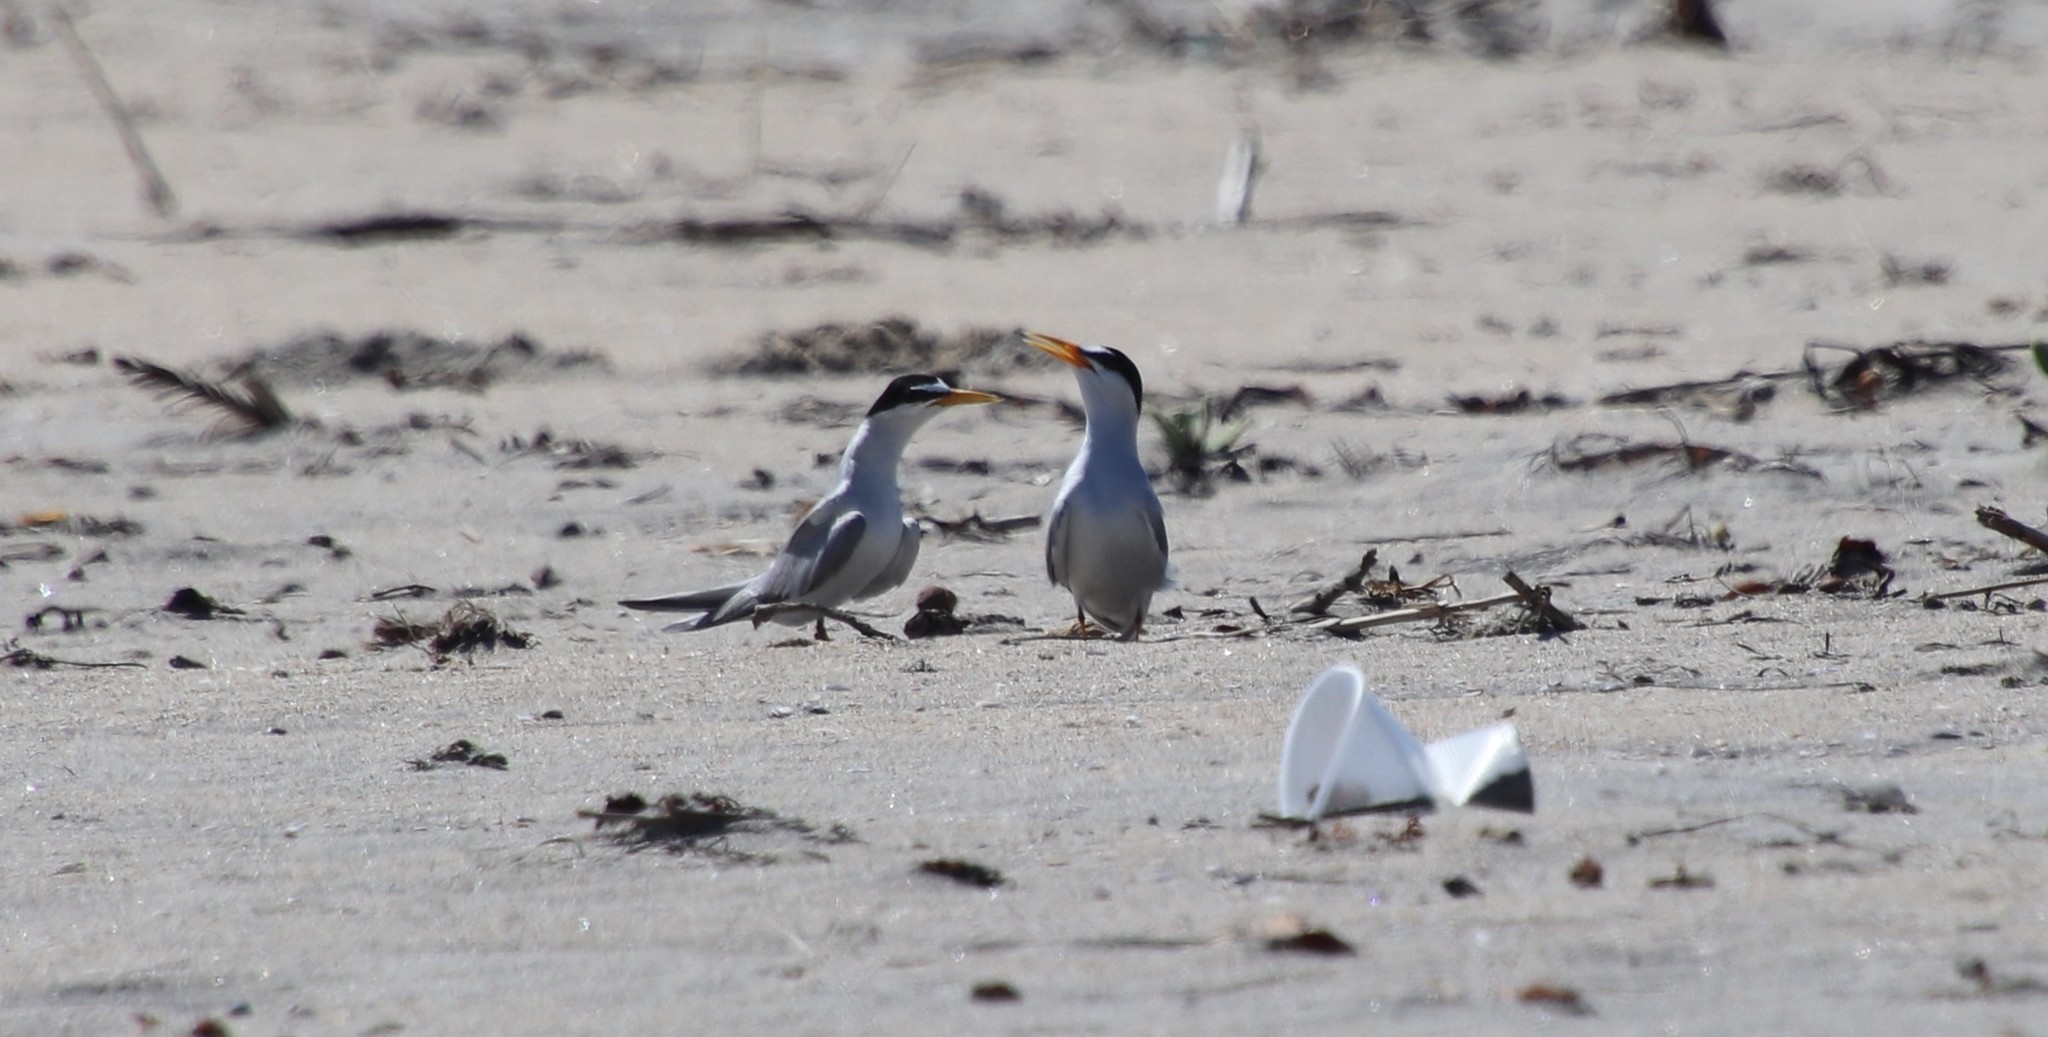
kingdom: Animalia
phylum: Chordata
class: Aves
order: Charadriiformes
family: Laridae
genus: Sternula
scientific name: Sternula antillarum
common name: Least tern
